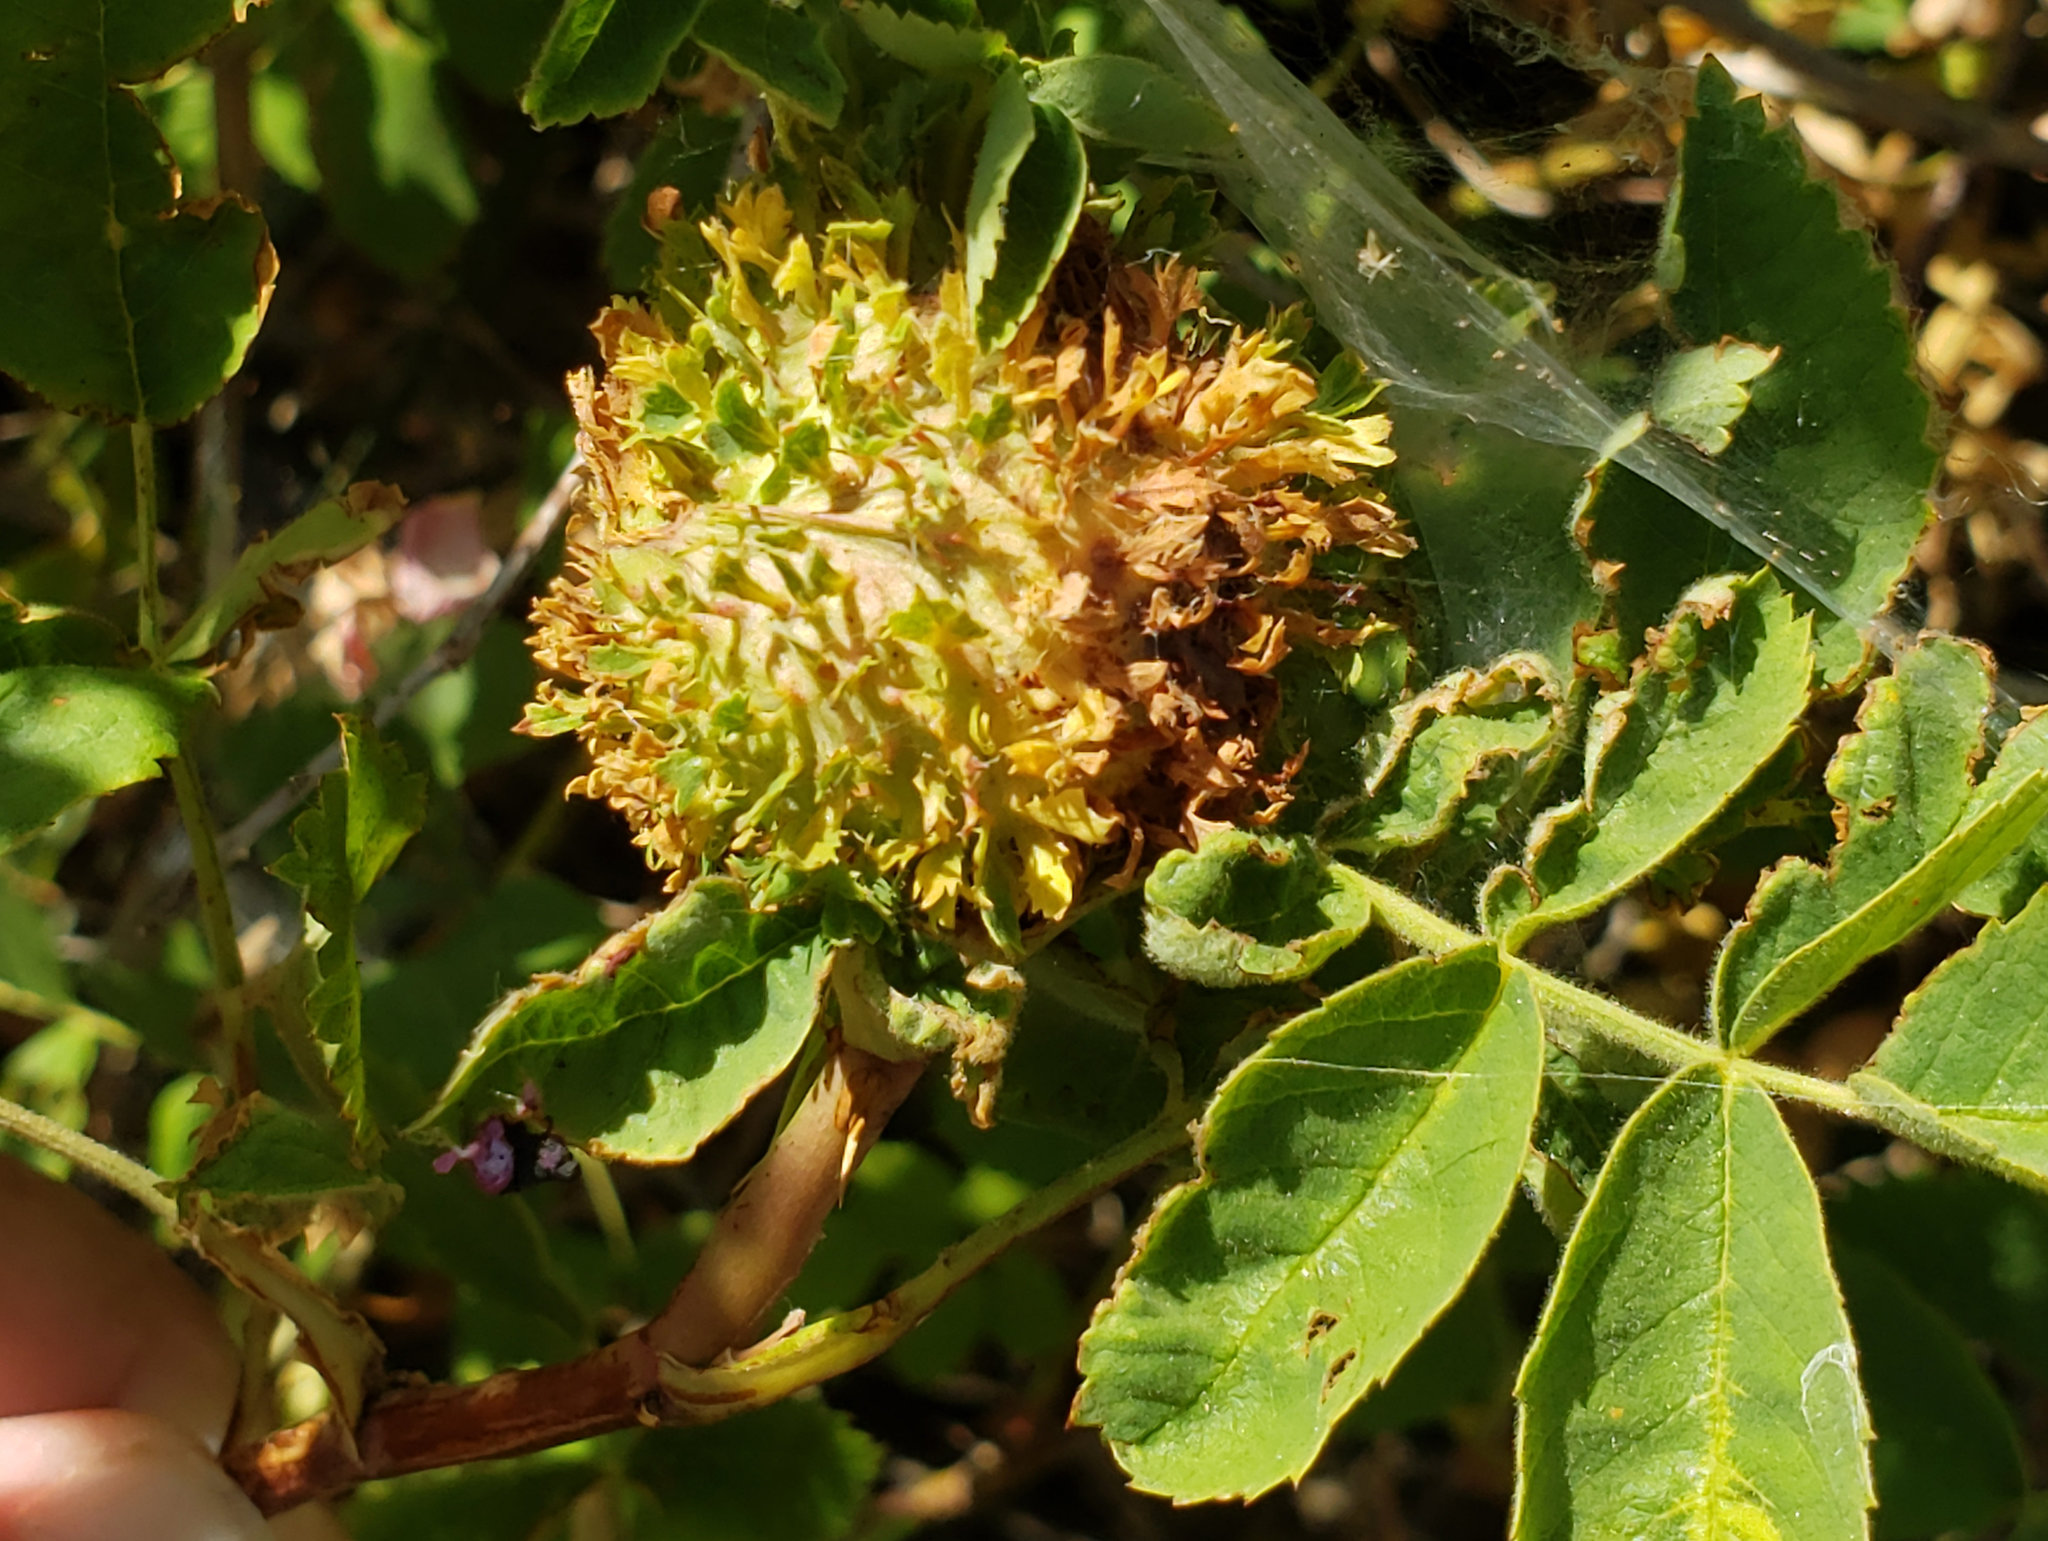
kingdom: Animalia
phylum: Arthropoda
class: Insecta
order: Hymenoptera
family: Cynipidae
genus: Diplolepis
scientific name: Diplolepis californica
